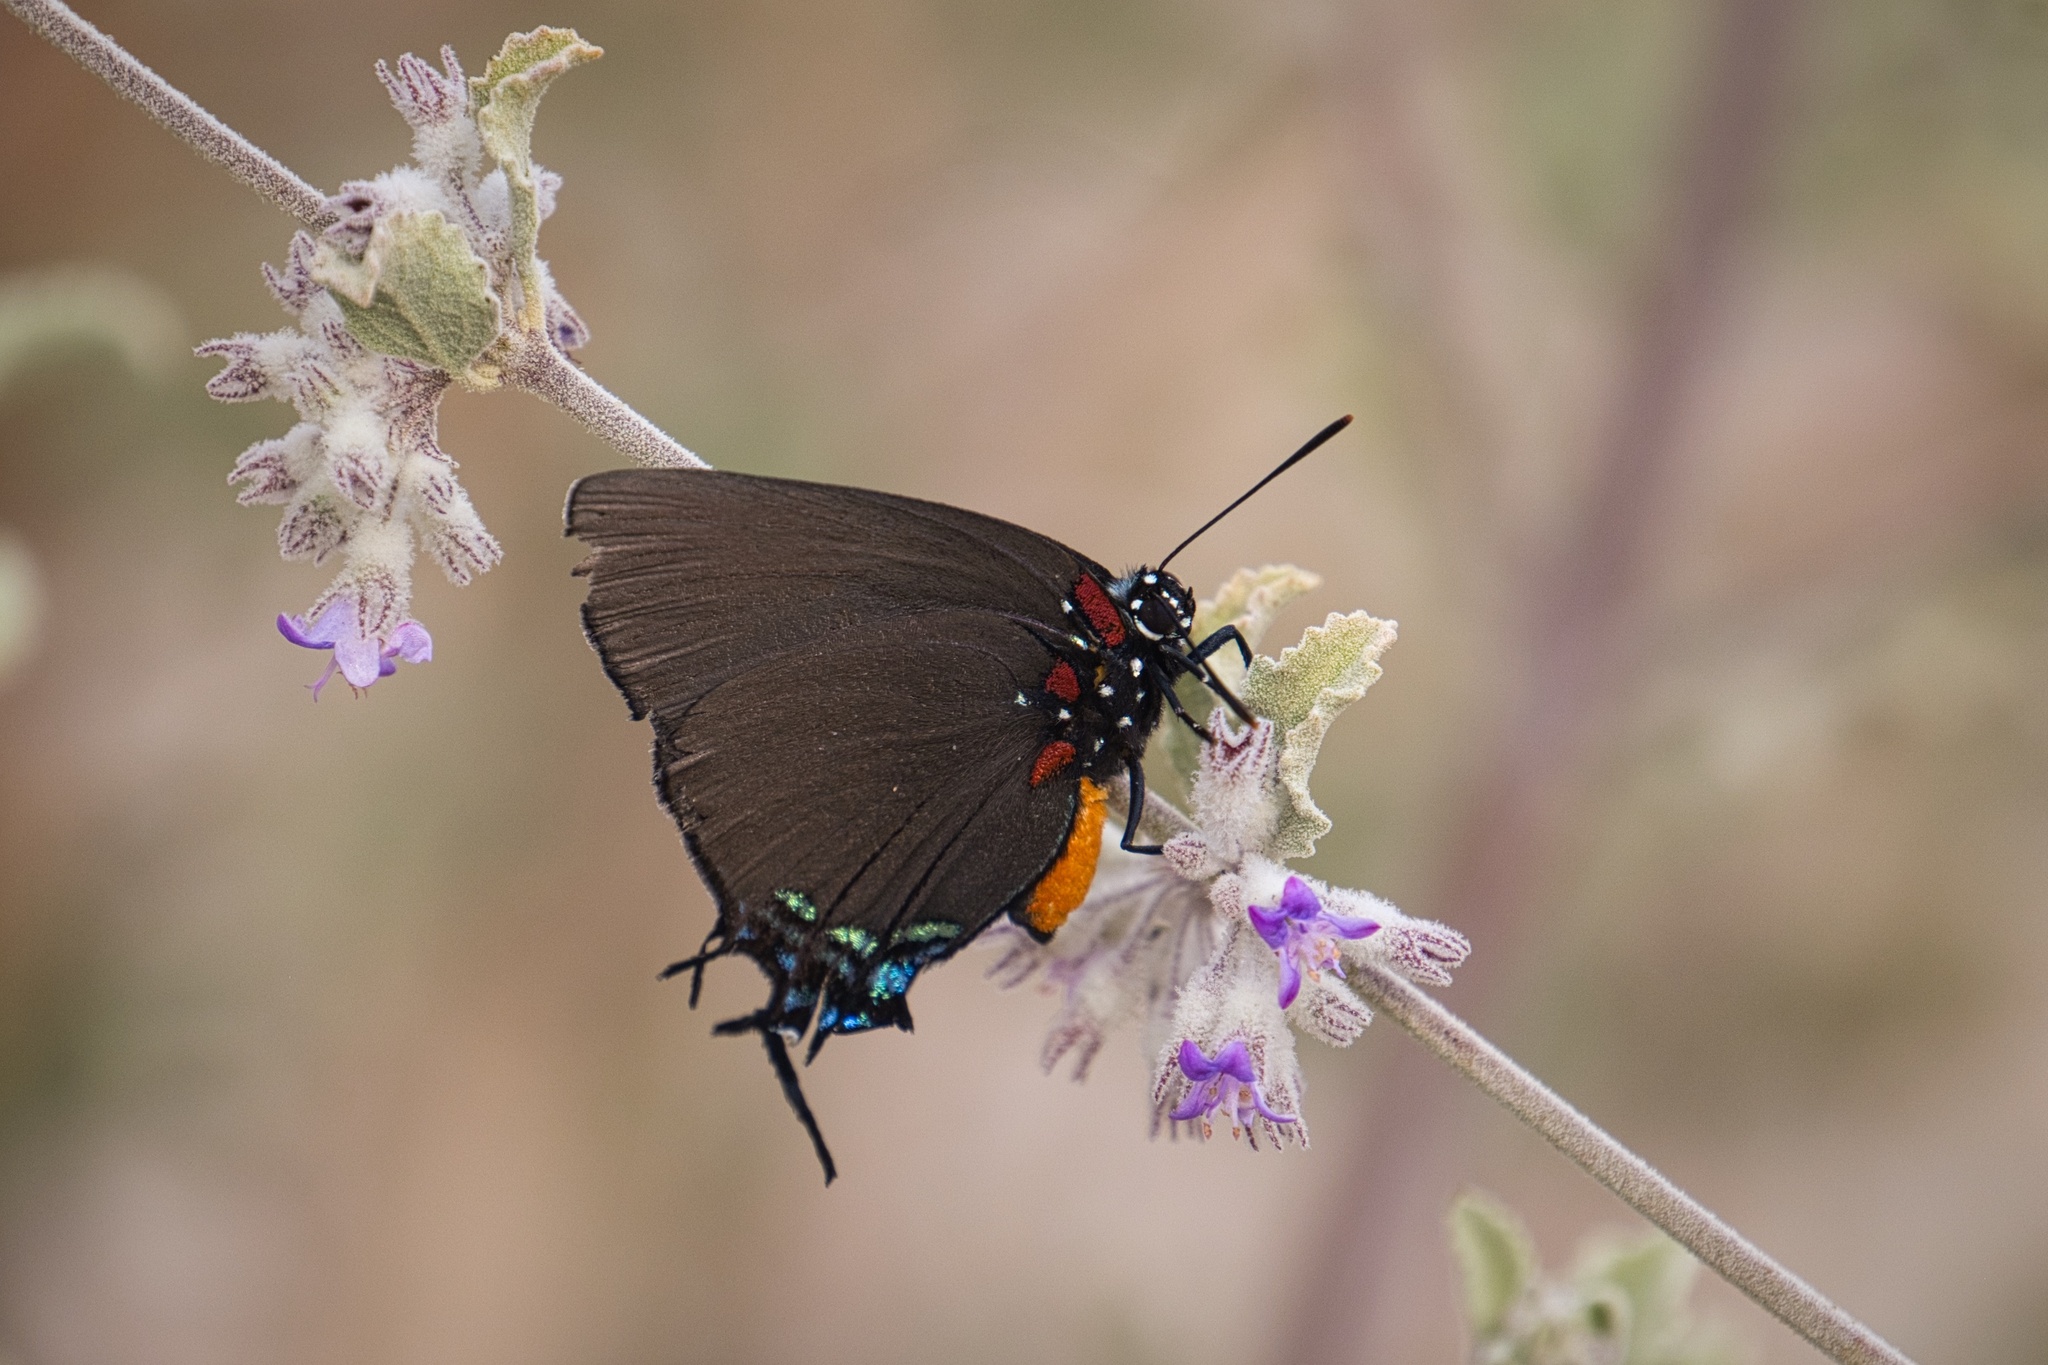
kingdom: Animalia
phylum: Arthropoda
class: Insecta
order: Lepidoptera
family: Lycaenidae
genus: Atlides
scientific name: Atlides halesus
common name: Great purple hairstreak
